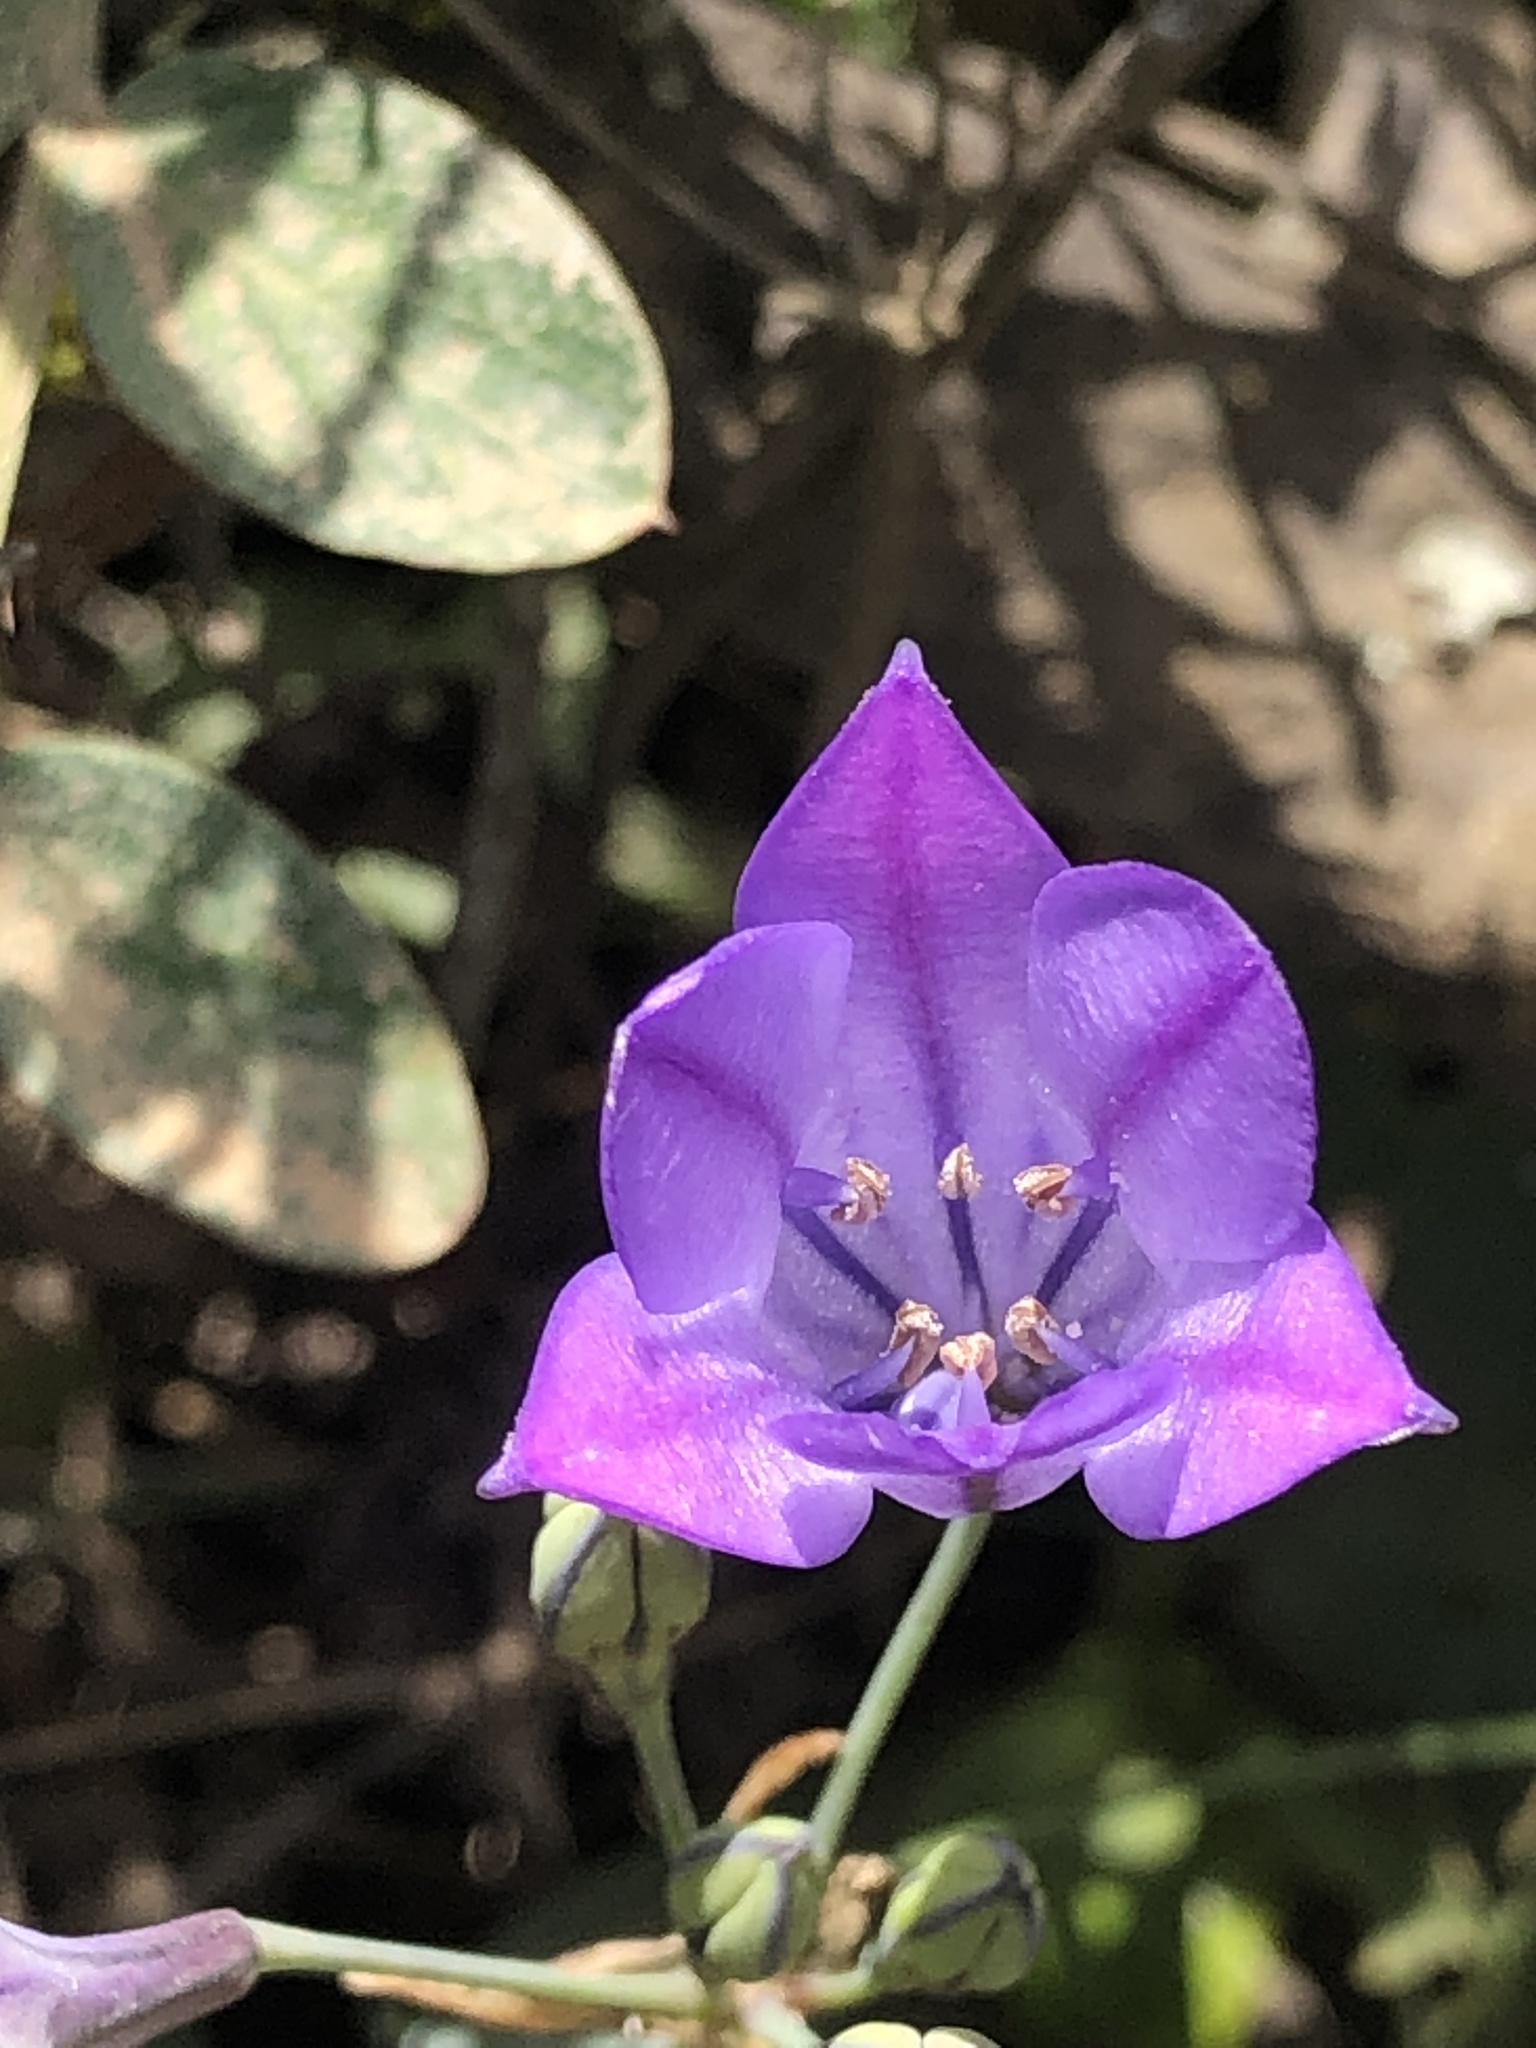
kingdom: Plantae
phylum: Tracheophyta
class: Liliopsida
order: Asparagales
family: Asparagaceae
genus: Triteleia
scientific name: Triteleia laxa
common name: Triplet-lily
